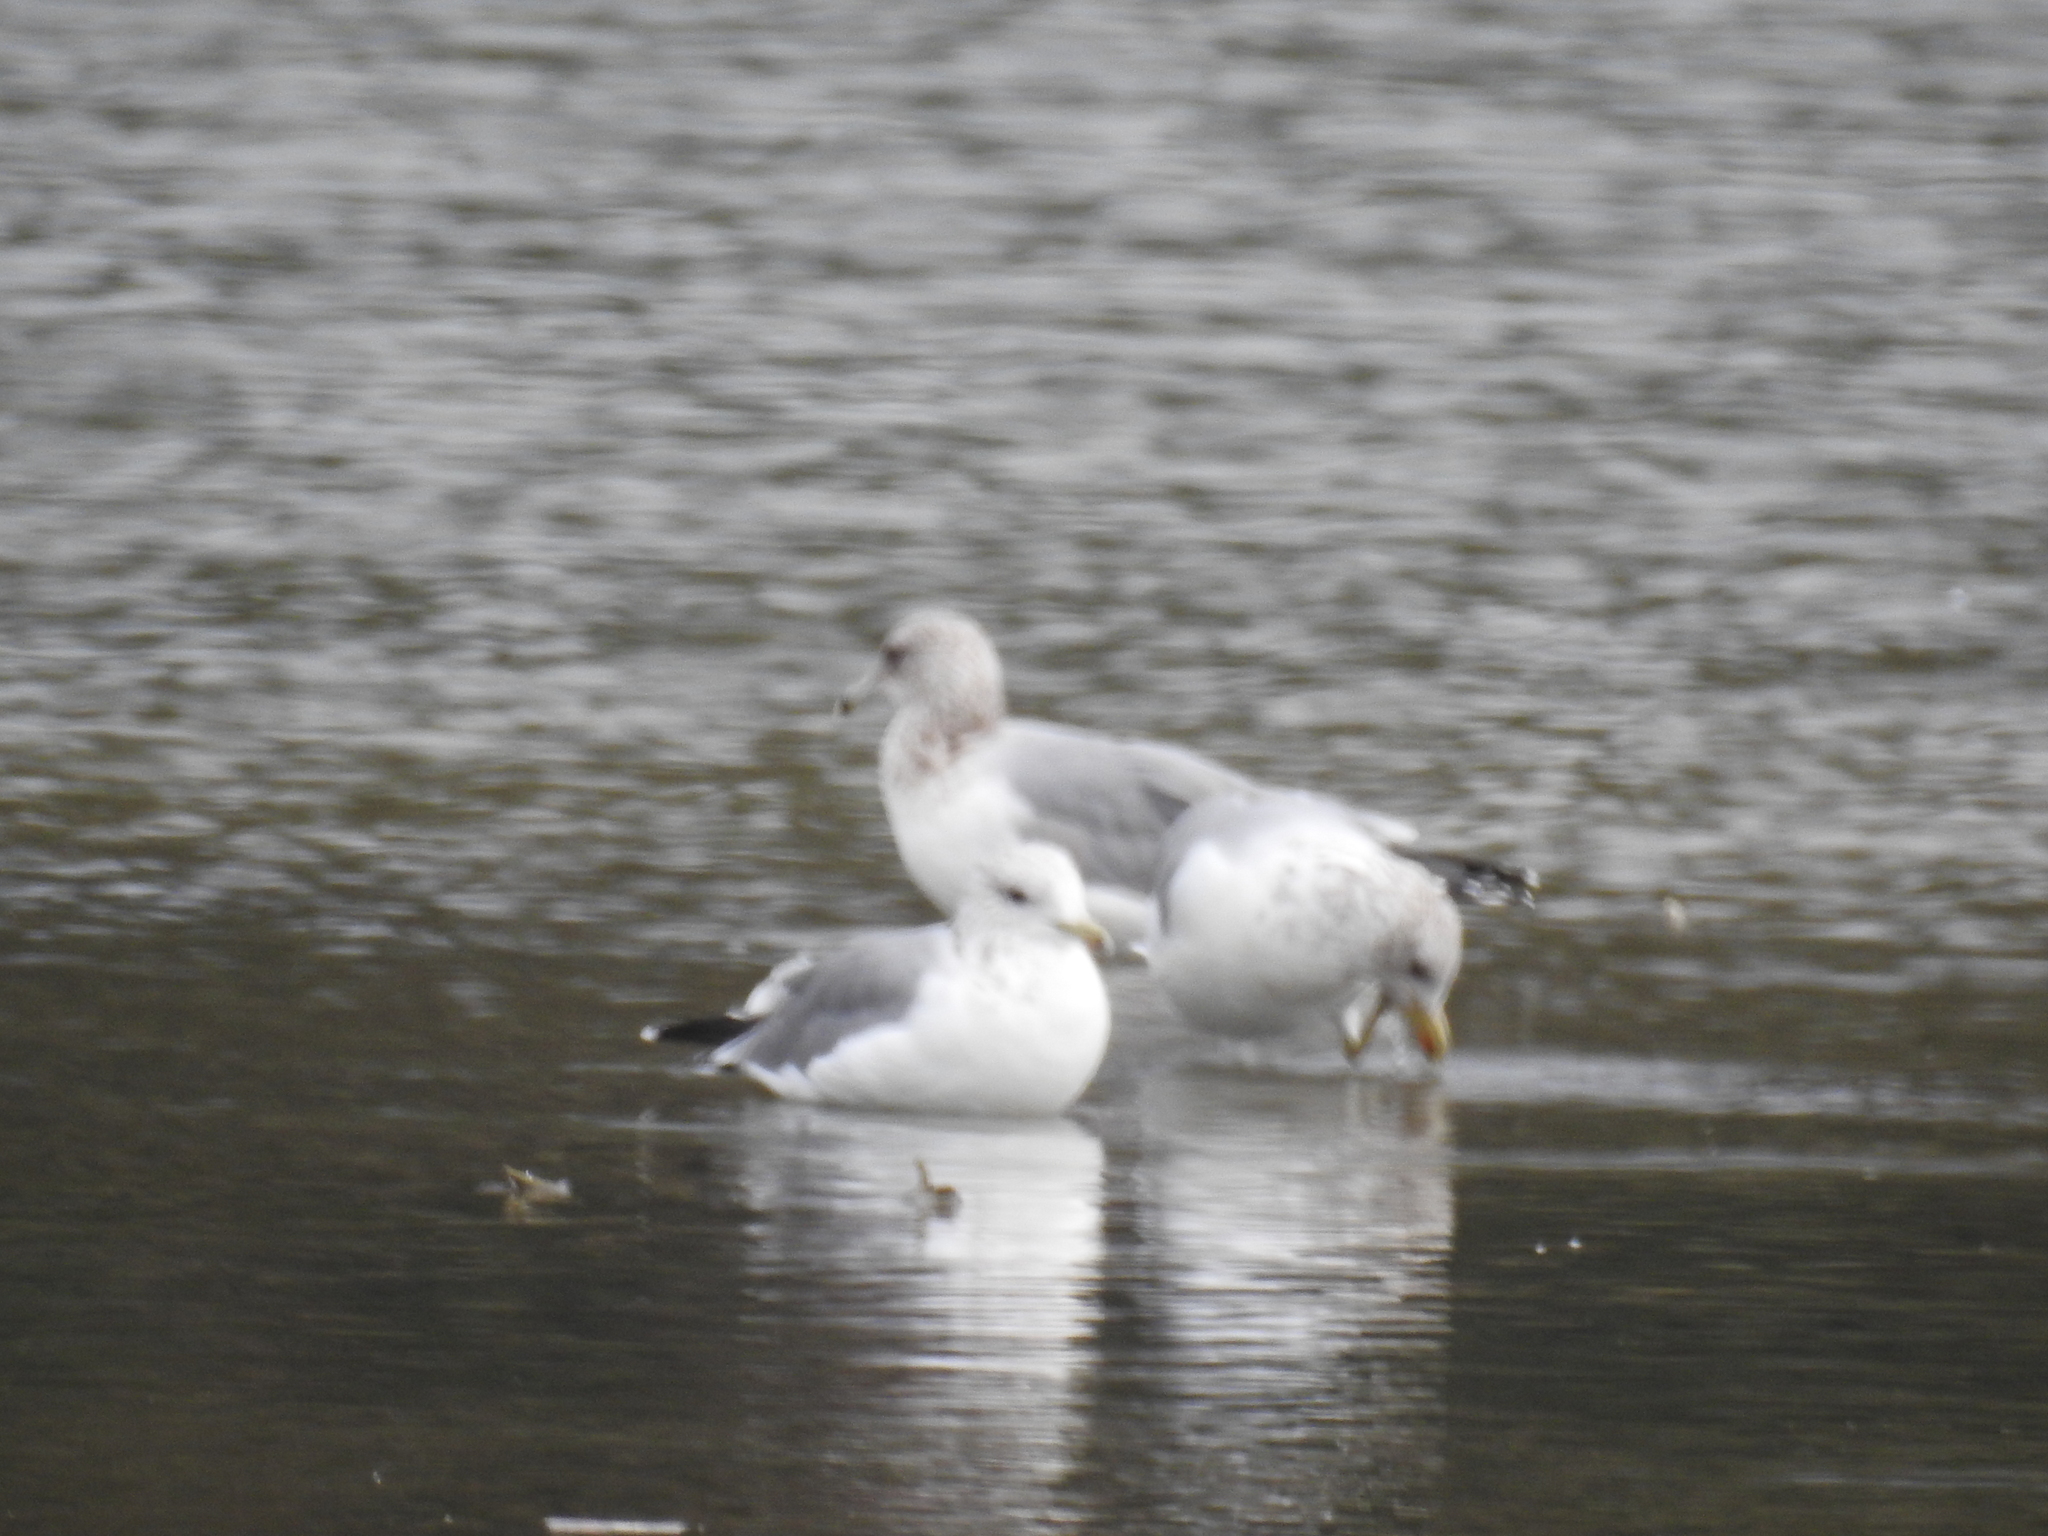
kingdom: Animalia
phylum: Chordata
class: Aves
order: Charadriiformes
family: Laridae
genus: Larus
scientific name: Larus californicus
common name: California gull
